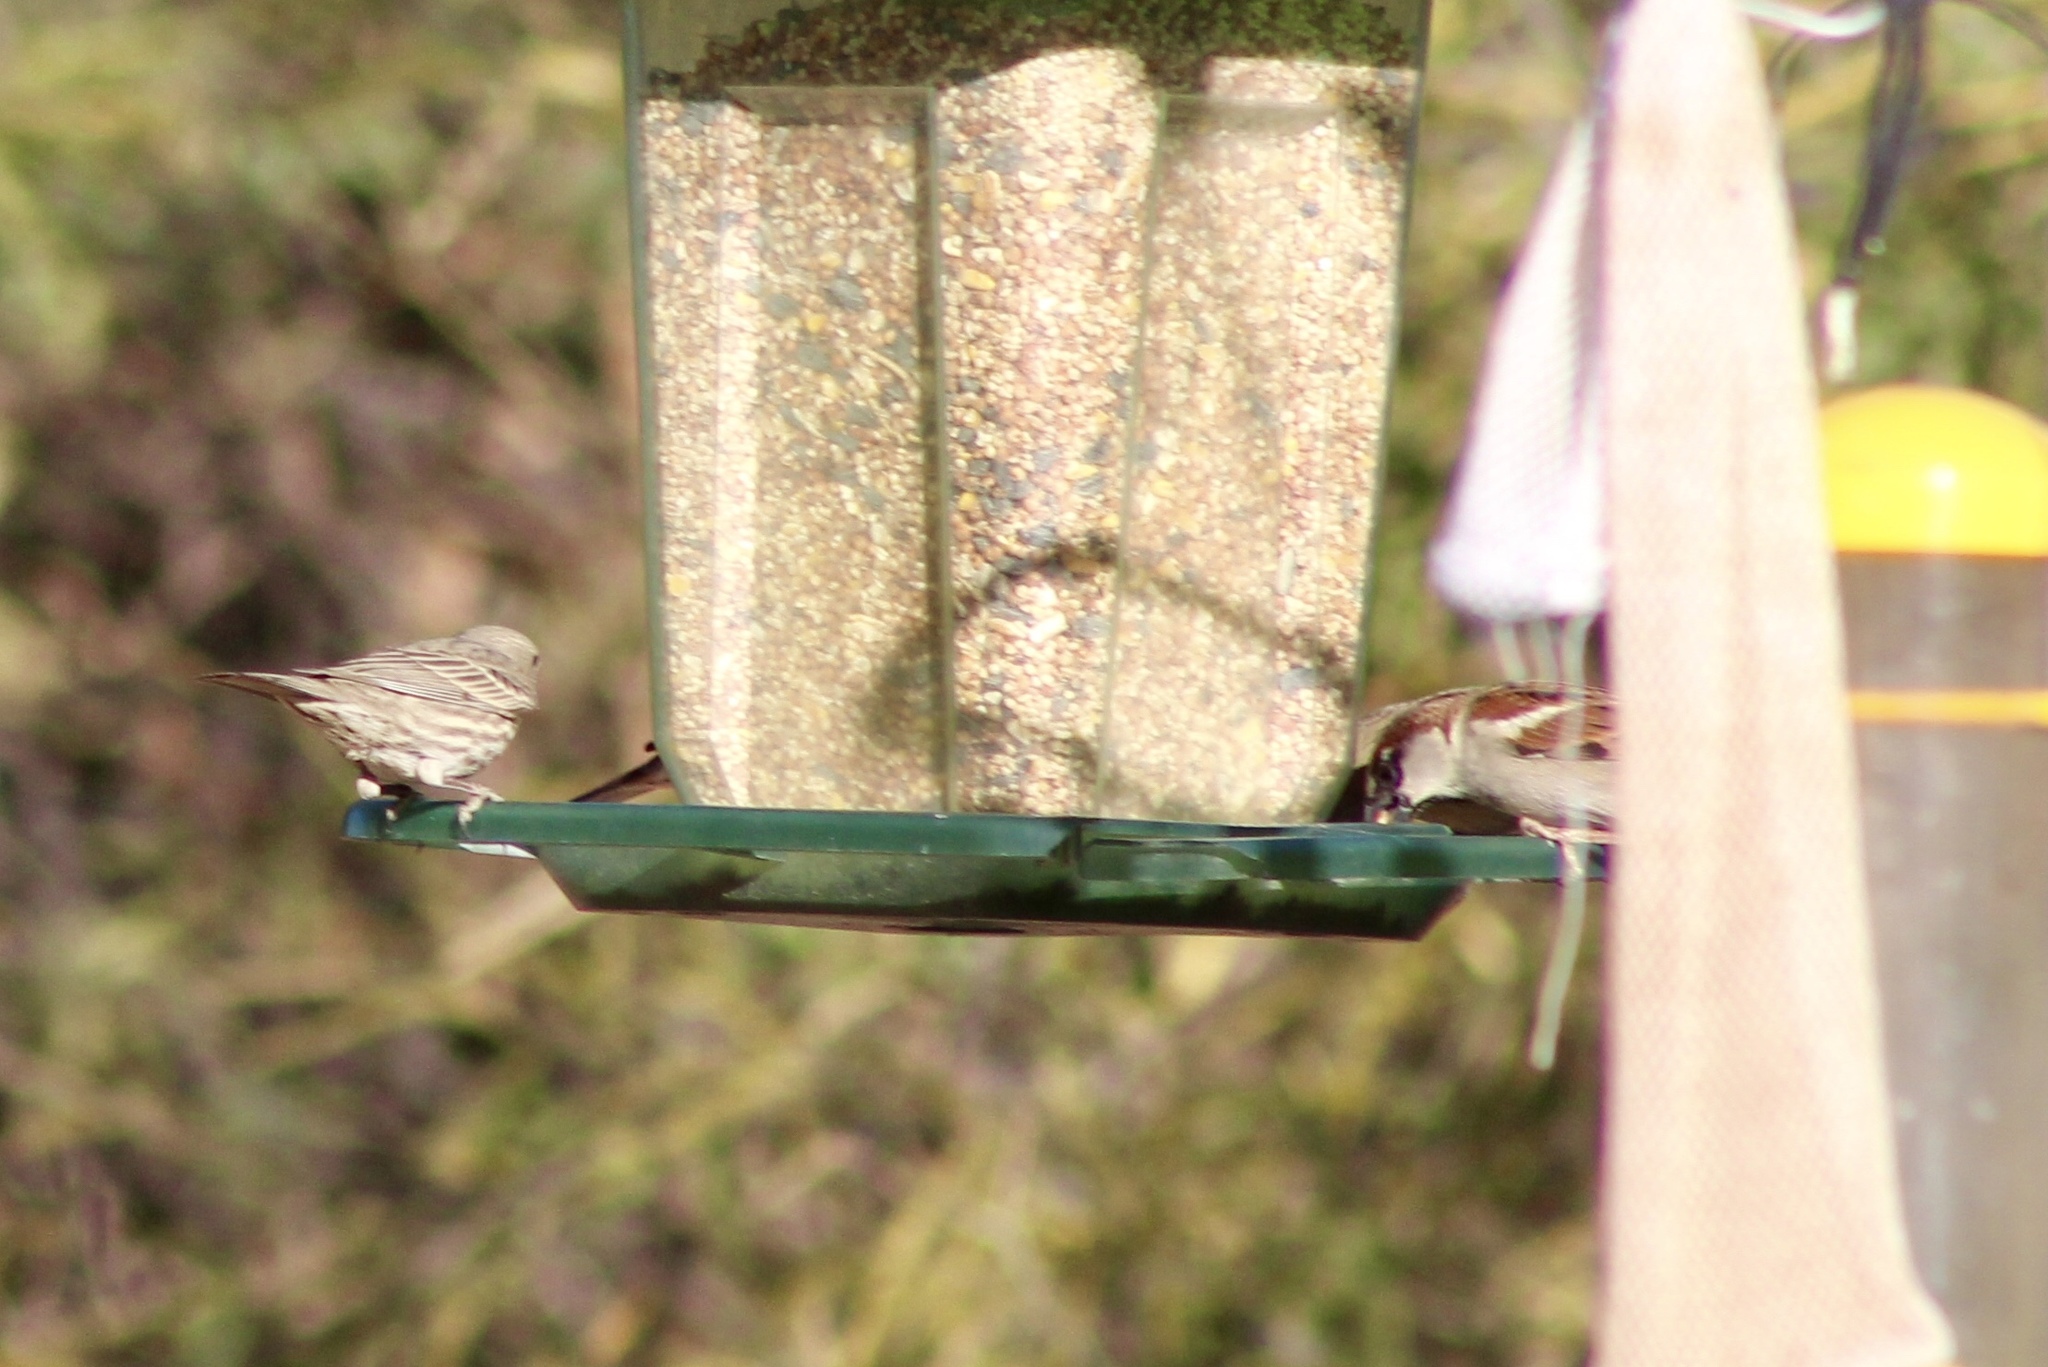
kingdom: Animalia
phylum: Chordata
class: Aves
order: Passeriformes
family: Passeridae
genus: Passer
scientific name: Passer domesticus
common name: House sparrow
